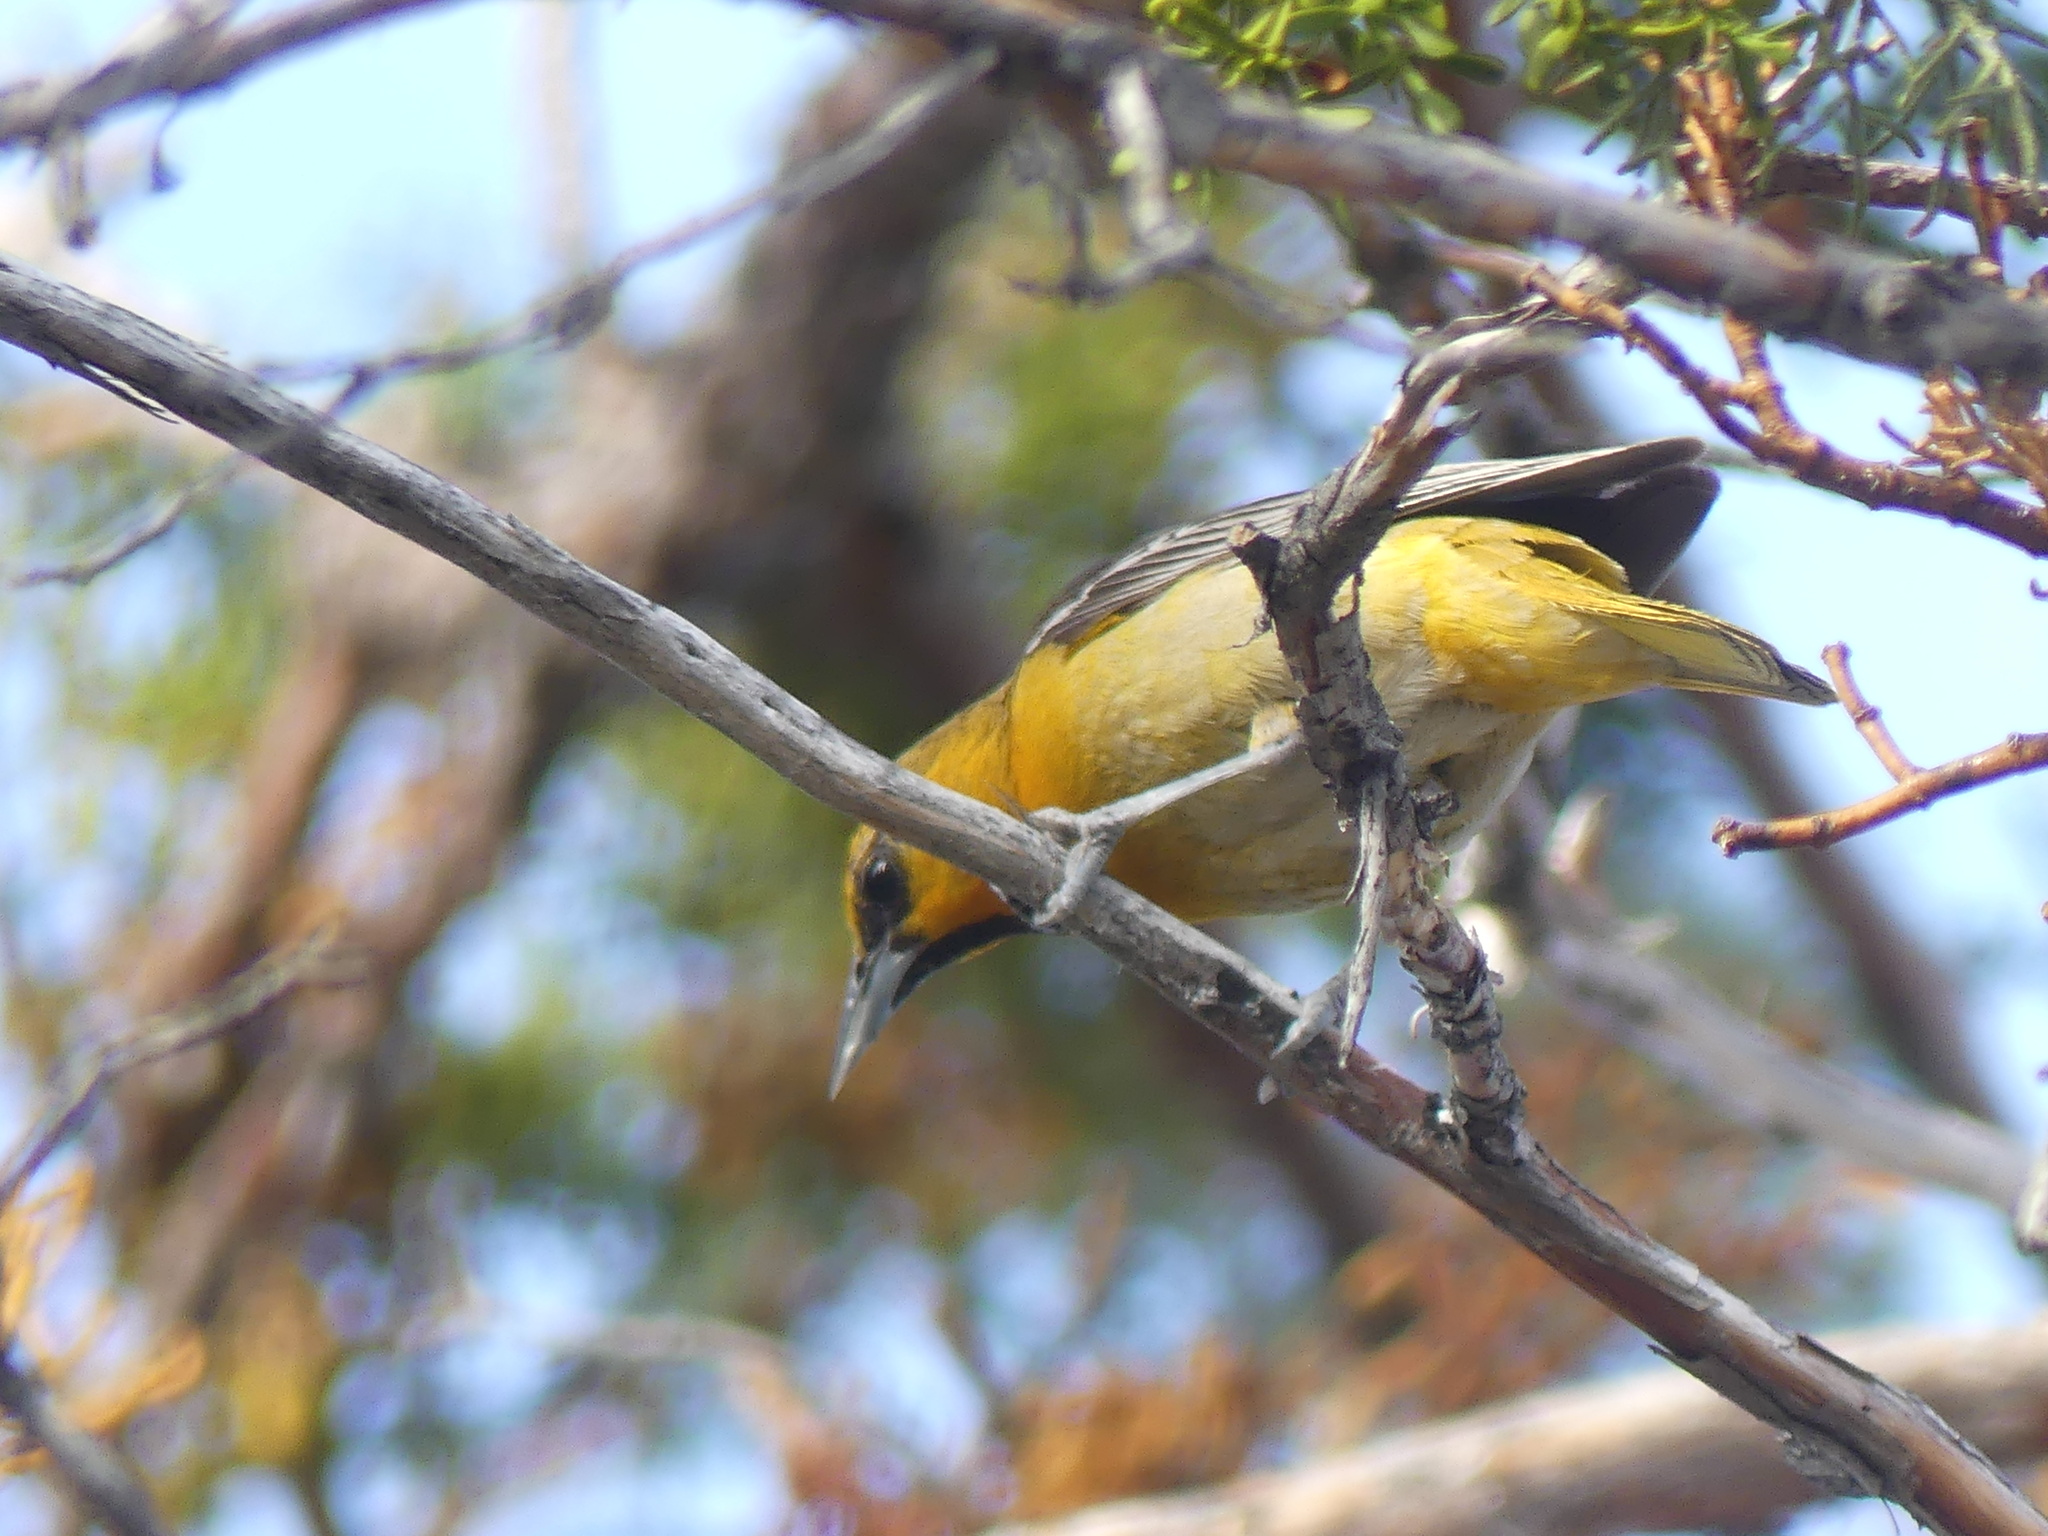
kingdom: Animalia
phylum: Chordata
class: Aves
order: Passeriformes
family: Icteridae
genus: Icterus
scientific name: Icterus bullockii
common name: Bullock's oriole
